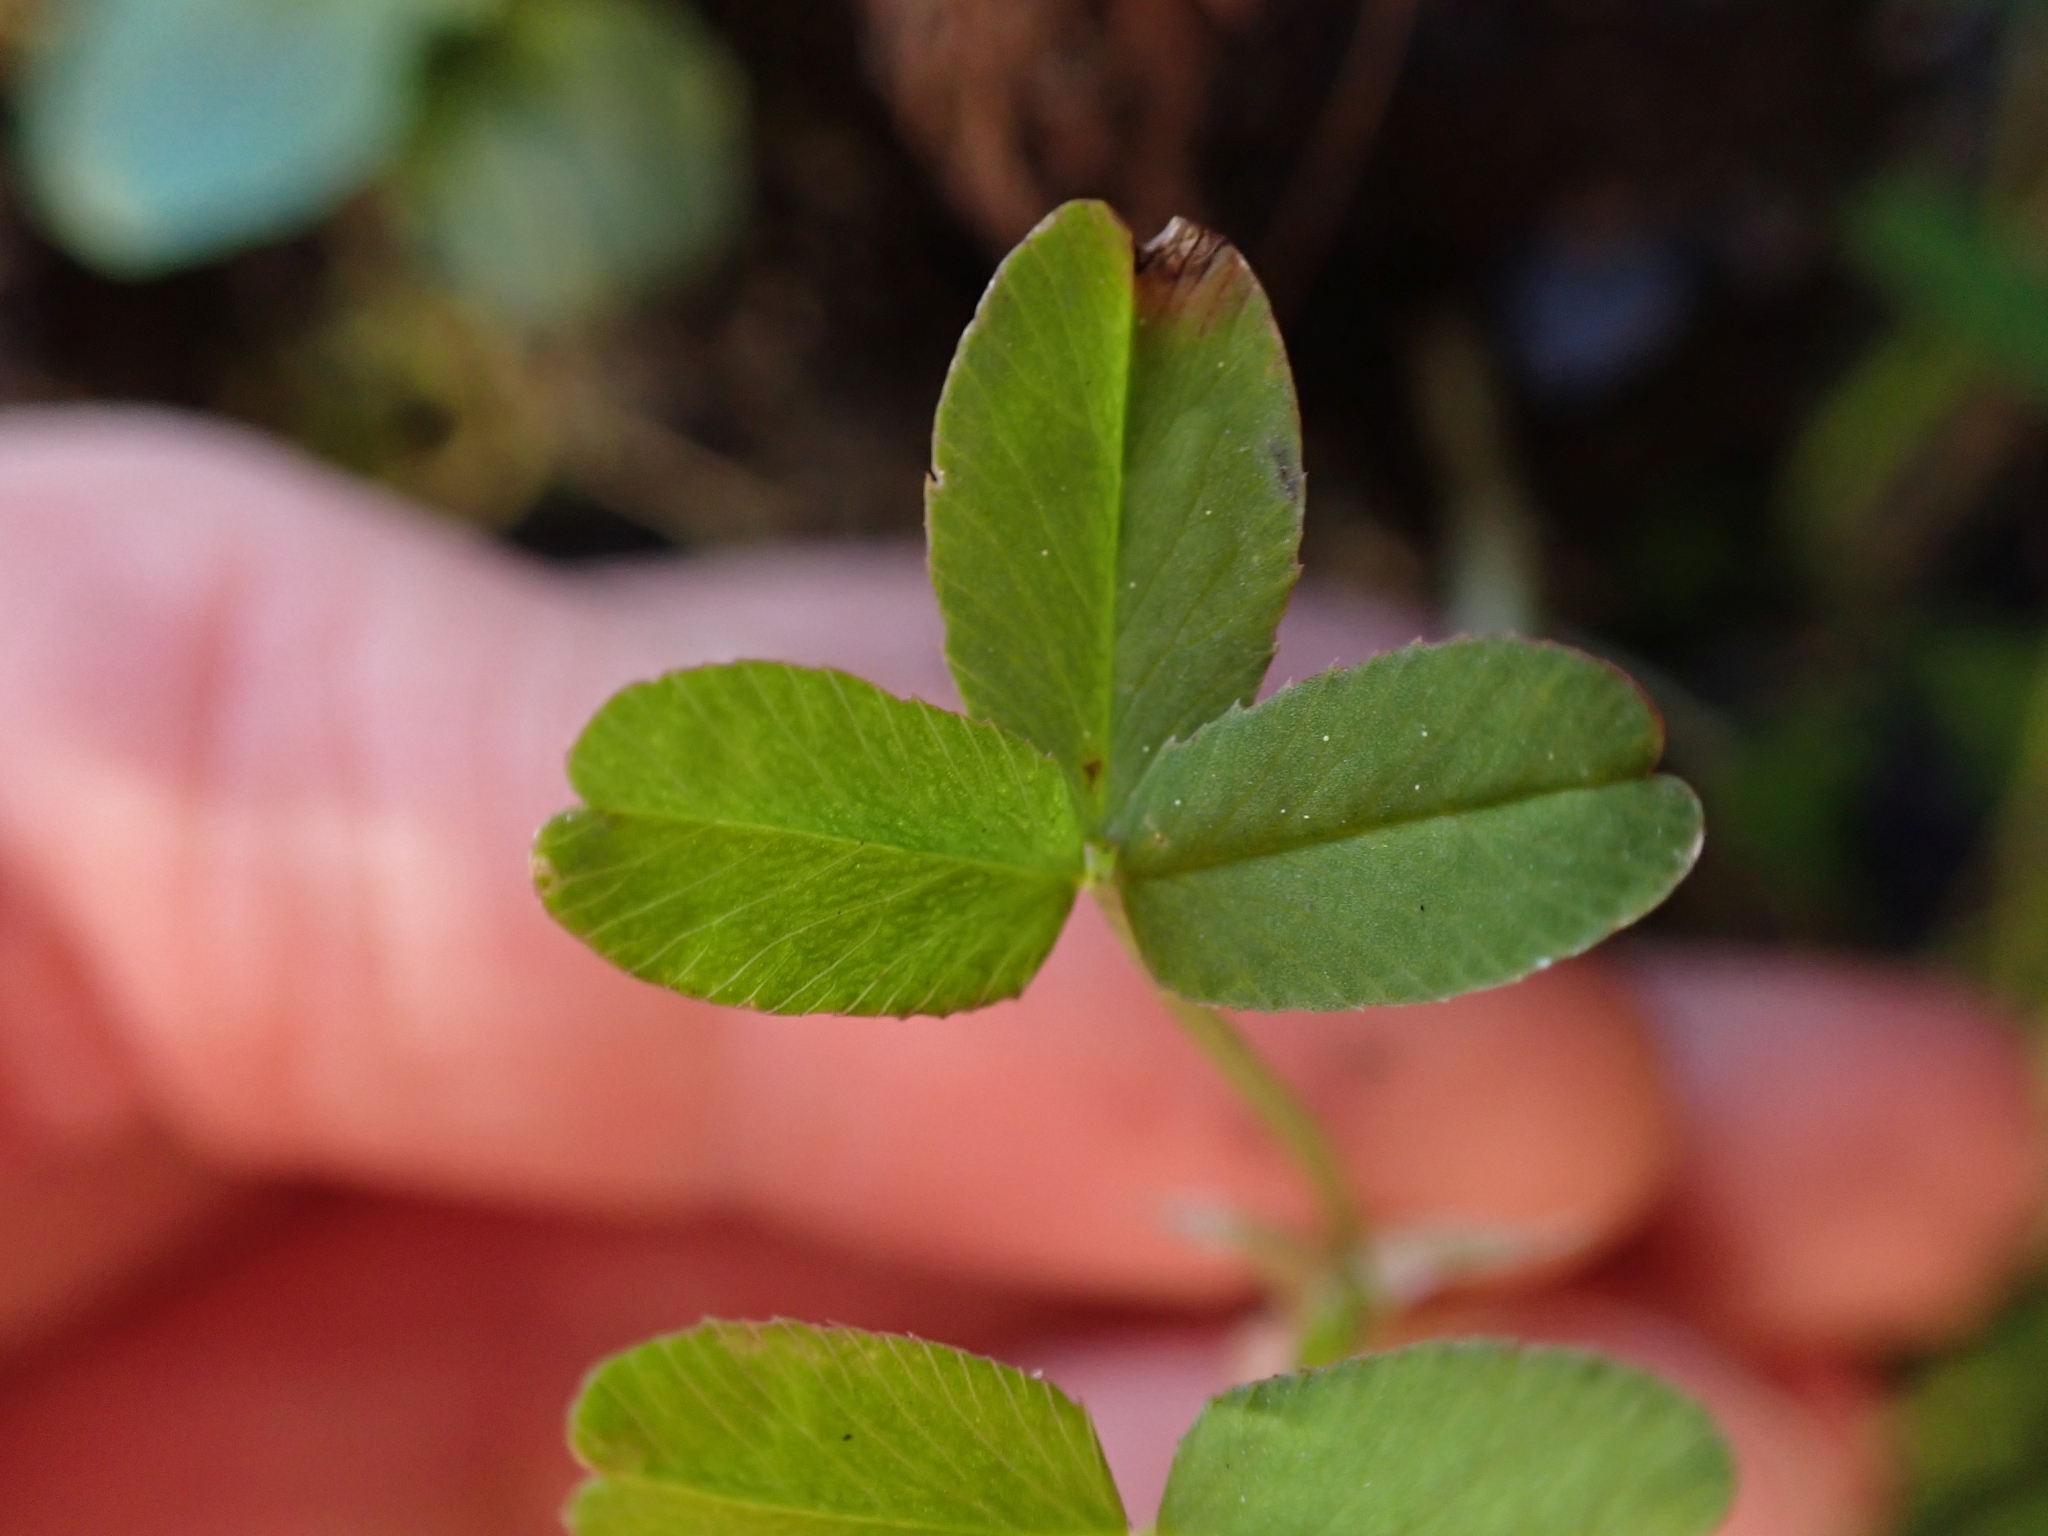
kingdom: Plantae
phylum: Tracheophyta
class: Magnoliopsida
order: Fabales
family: Fabaceae
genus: Trifolium
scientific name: Trifolium wormskioldii
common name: Springbank clover
